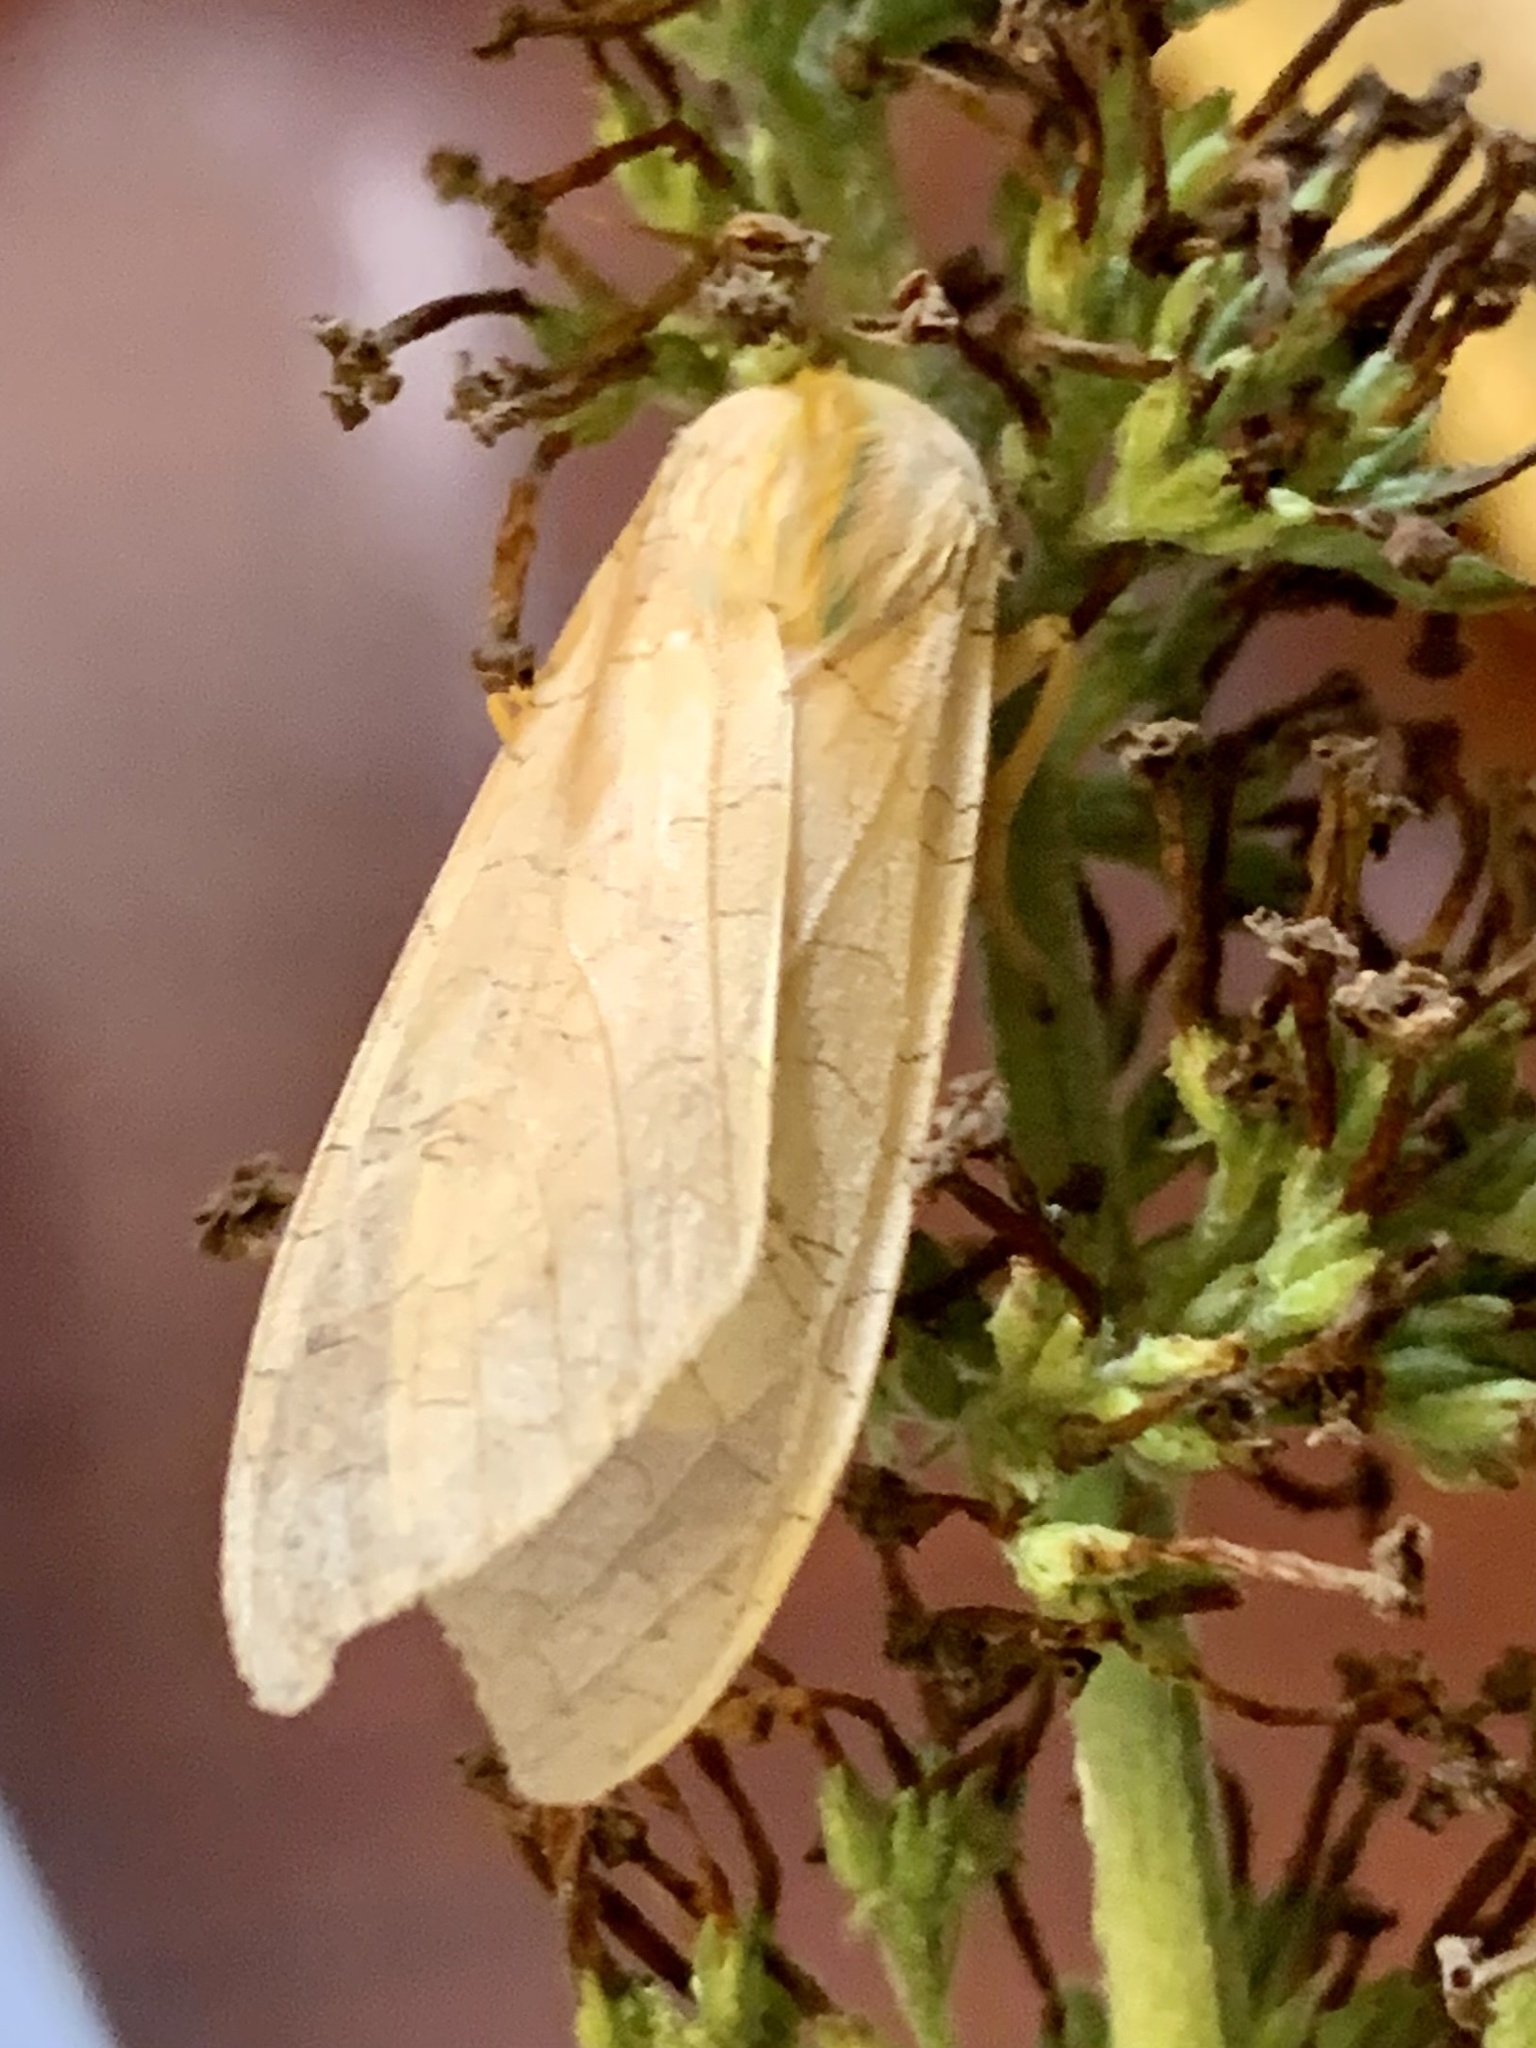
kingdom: Animalia
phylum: Arthropoda
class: Insecta
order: Lepidoptera
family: Erebidae
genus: Halysidota
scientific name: Halysidota
